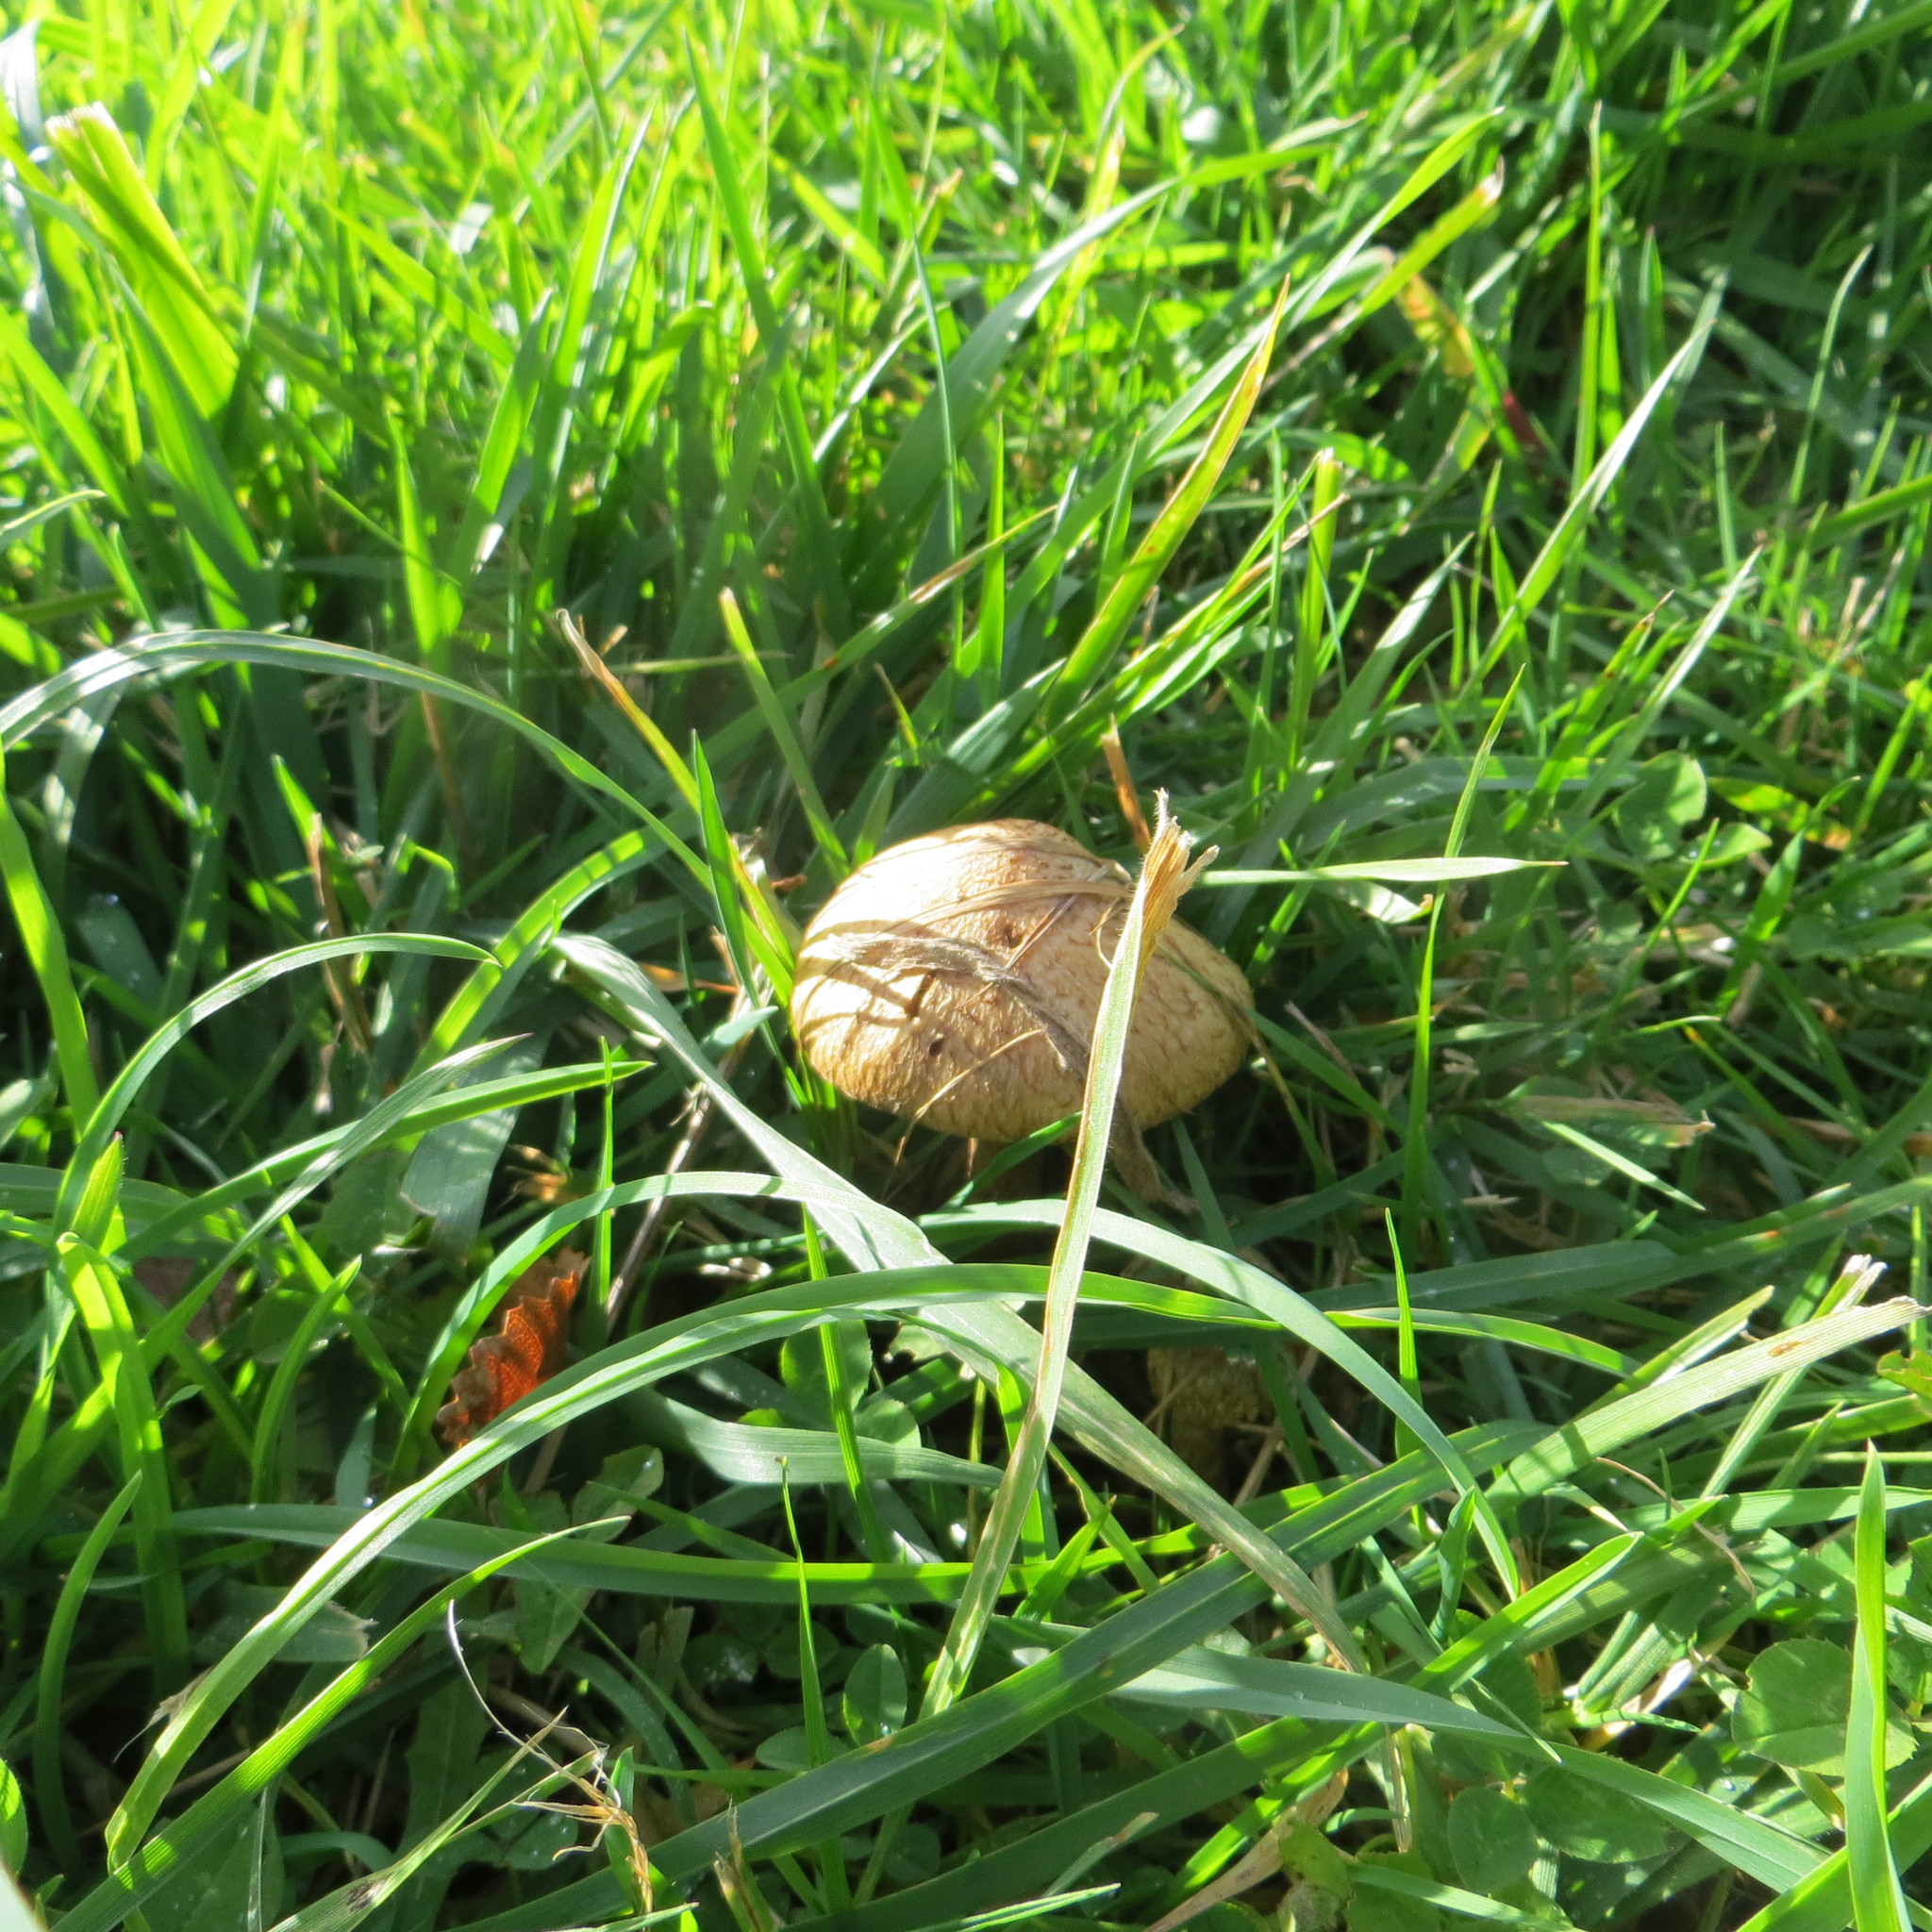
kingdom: Fungi
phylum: Basidiomycota
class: Agaricomycetes
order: Agaricales
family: Psathyrellaceae
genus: Lacrymaria
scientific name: Lacrymaria lacrymabunda
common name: Weeping widow
